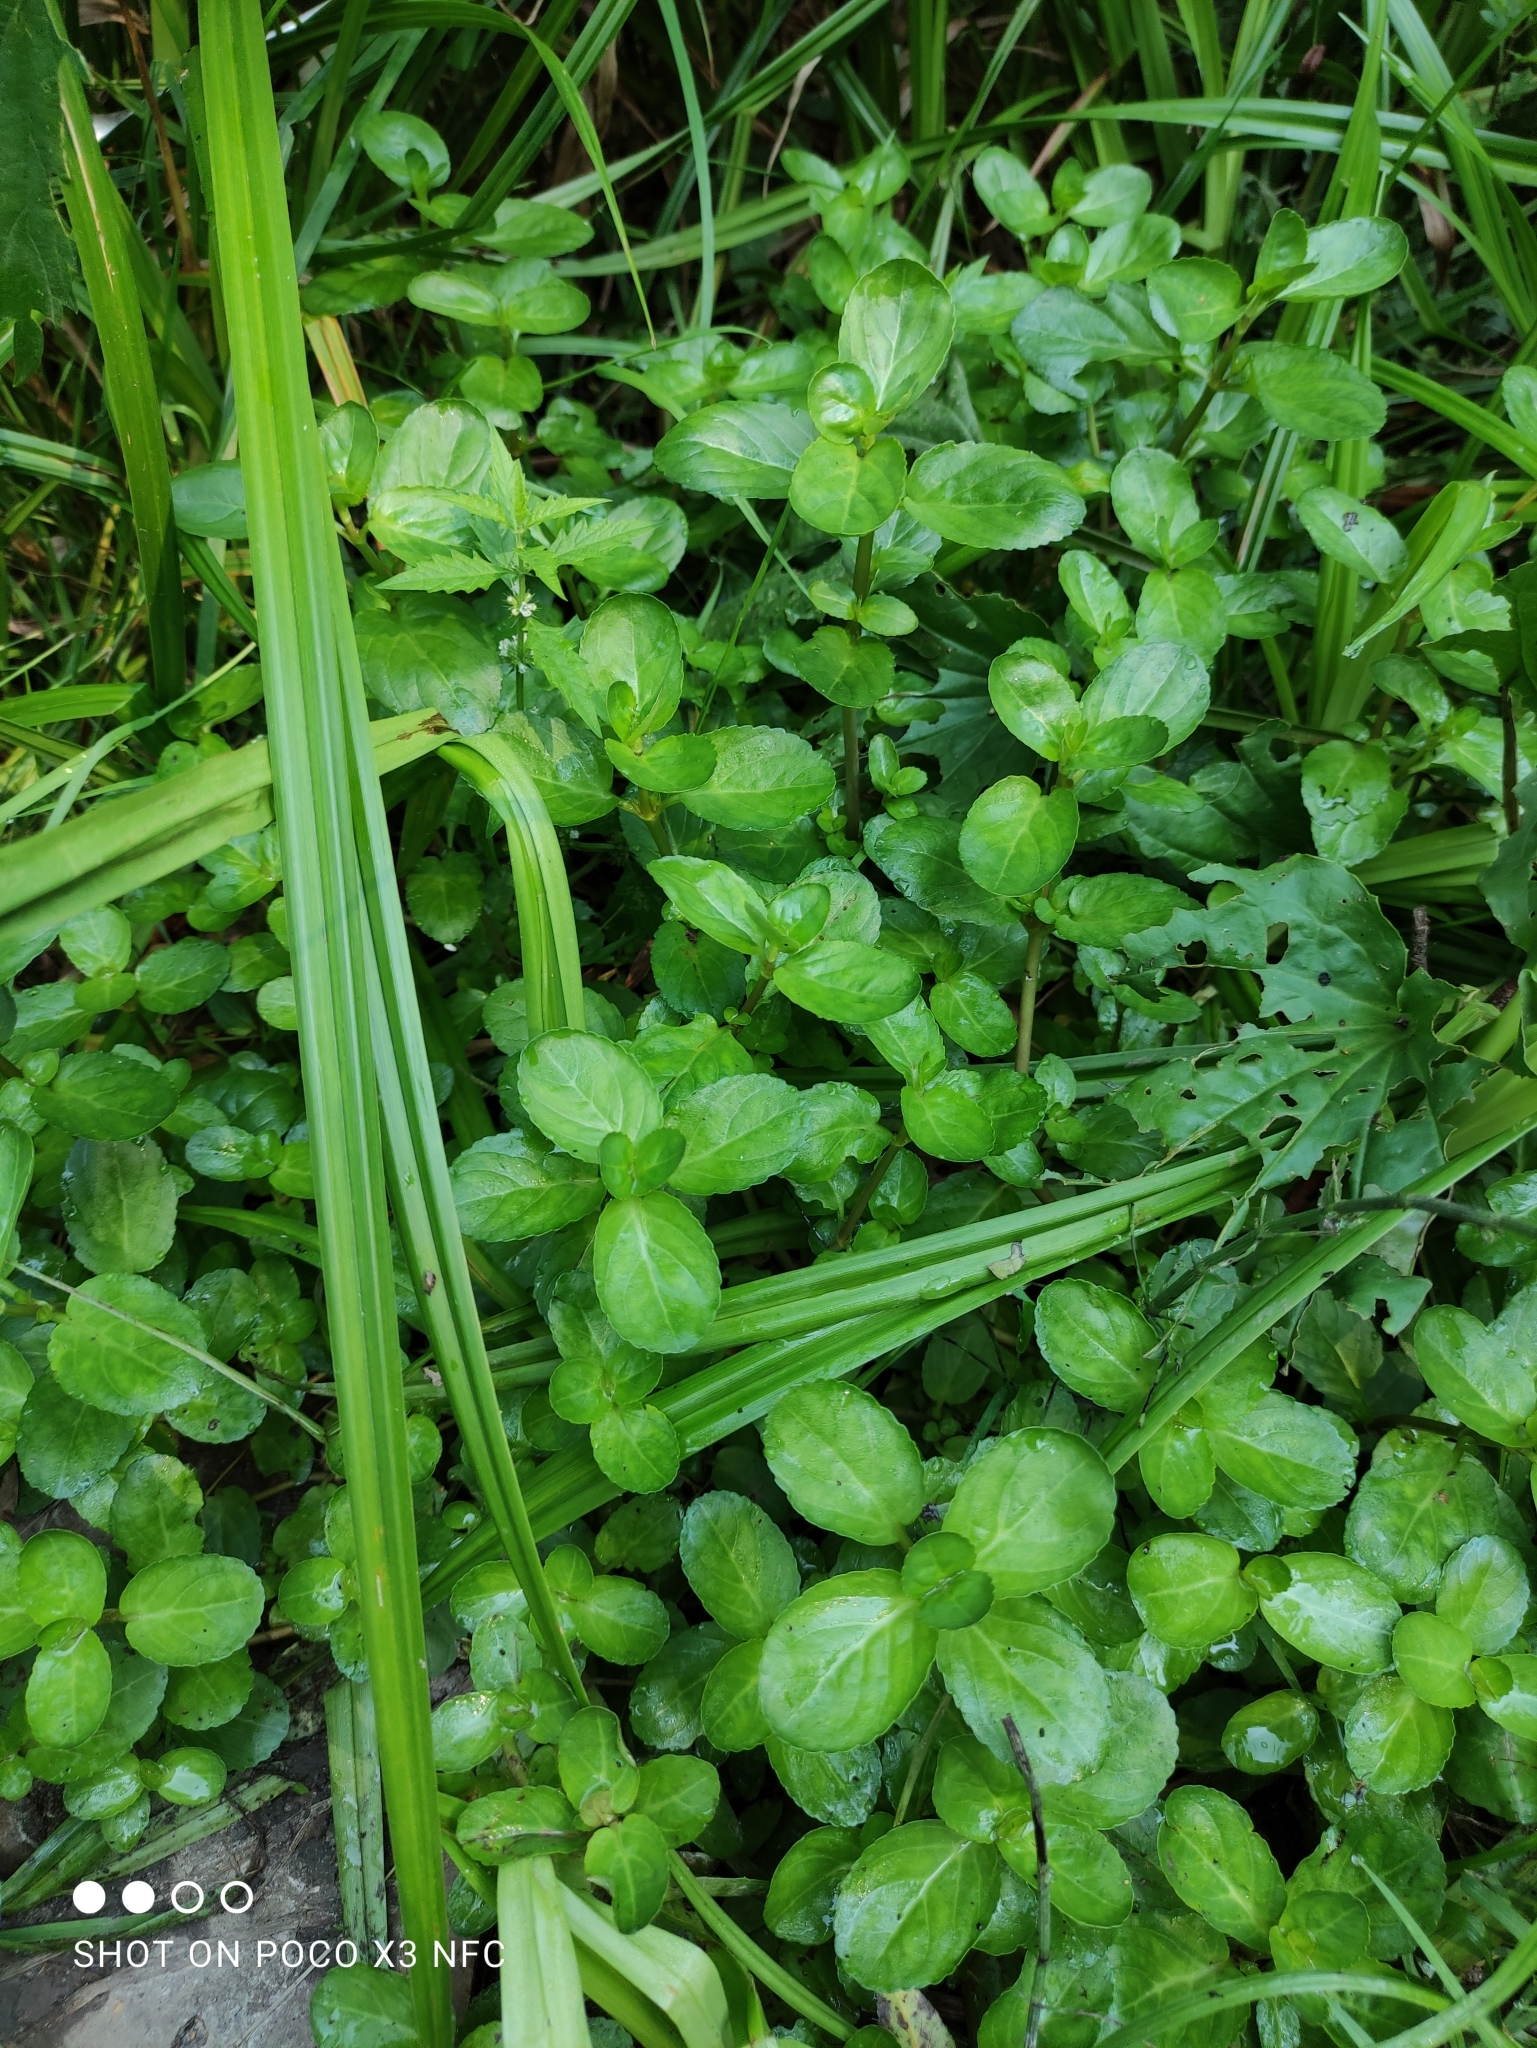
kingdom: Plantae
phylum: Tracheophyta
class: Magnoliopsida
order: Lamiales
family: Plantaginaceae
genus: Veronica
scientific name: Veronica beccabunga
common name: Brooklime
